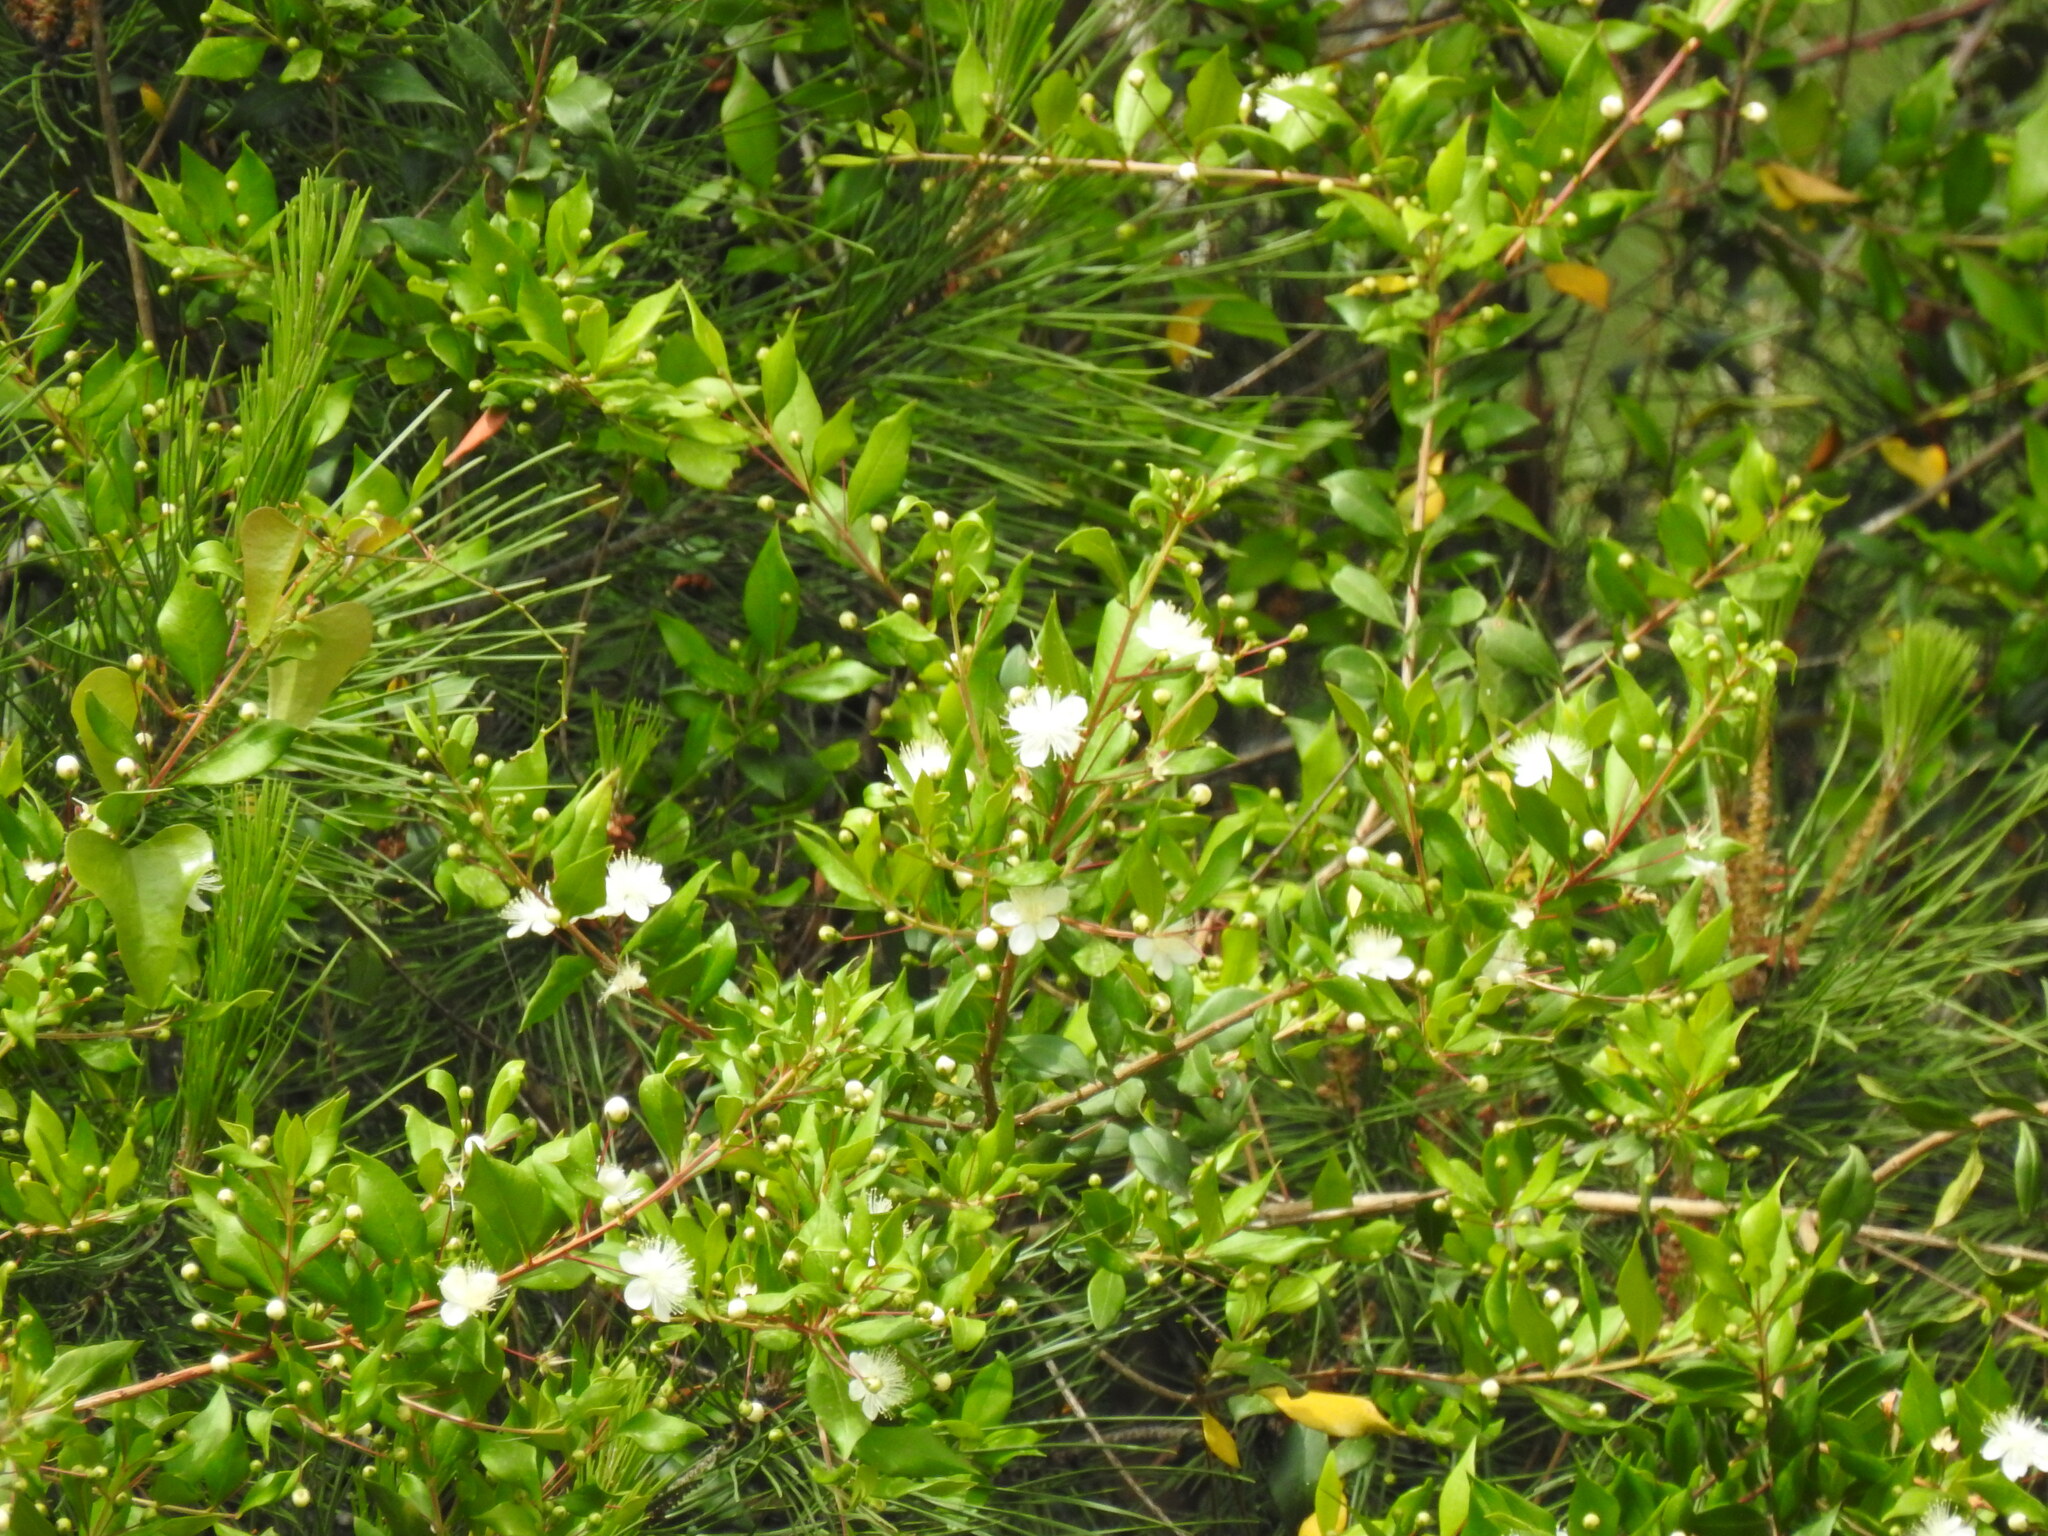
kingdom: Plantae
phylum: Tracheophyta
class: Magnoliopsida
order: Myrtales
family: Myrtaceae
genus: Myrtus
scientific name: Myrtus communis
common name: Myrtle
